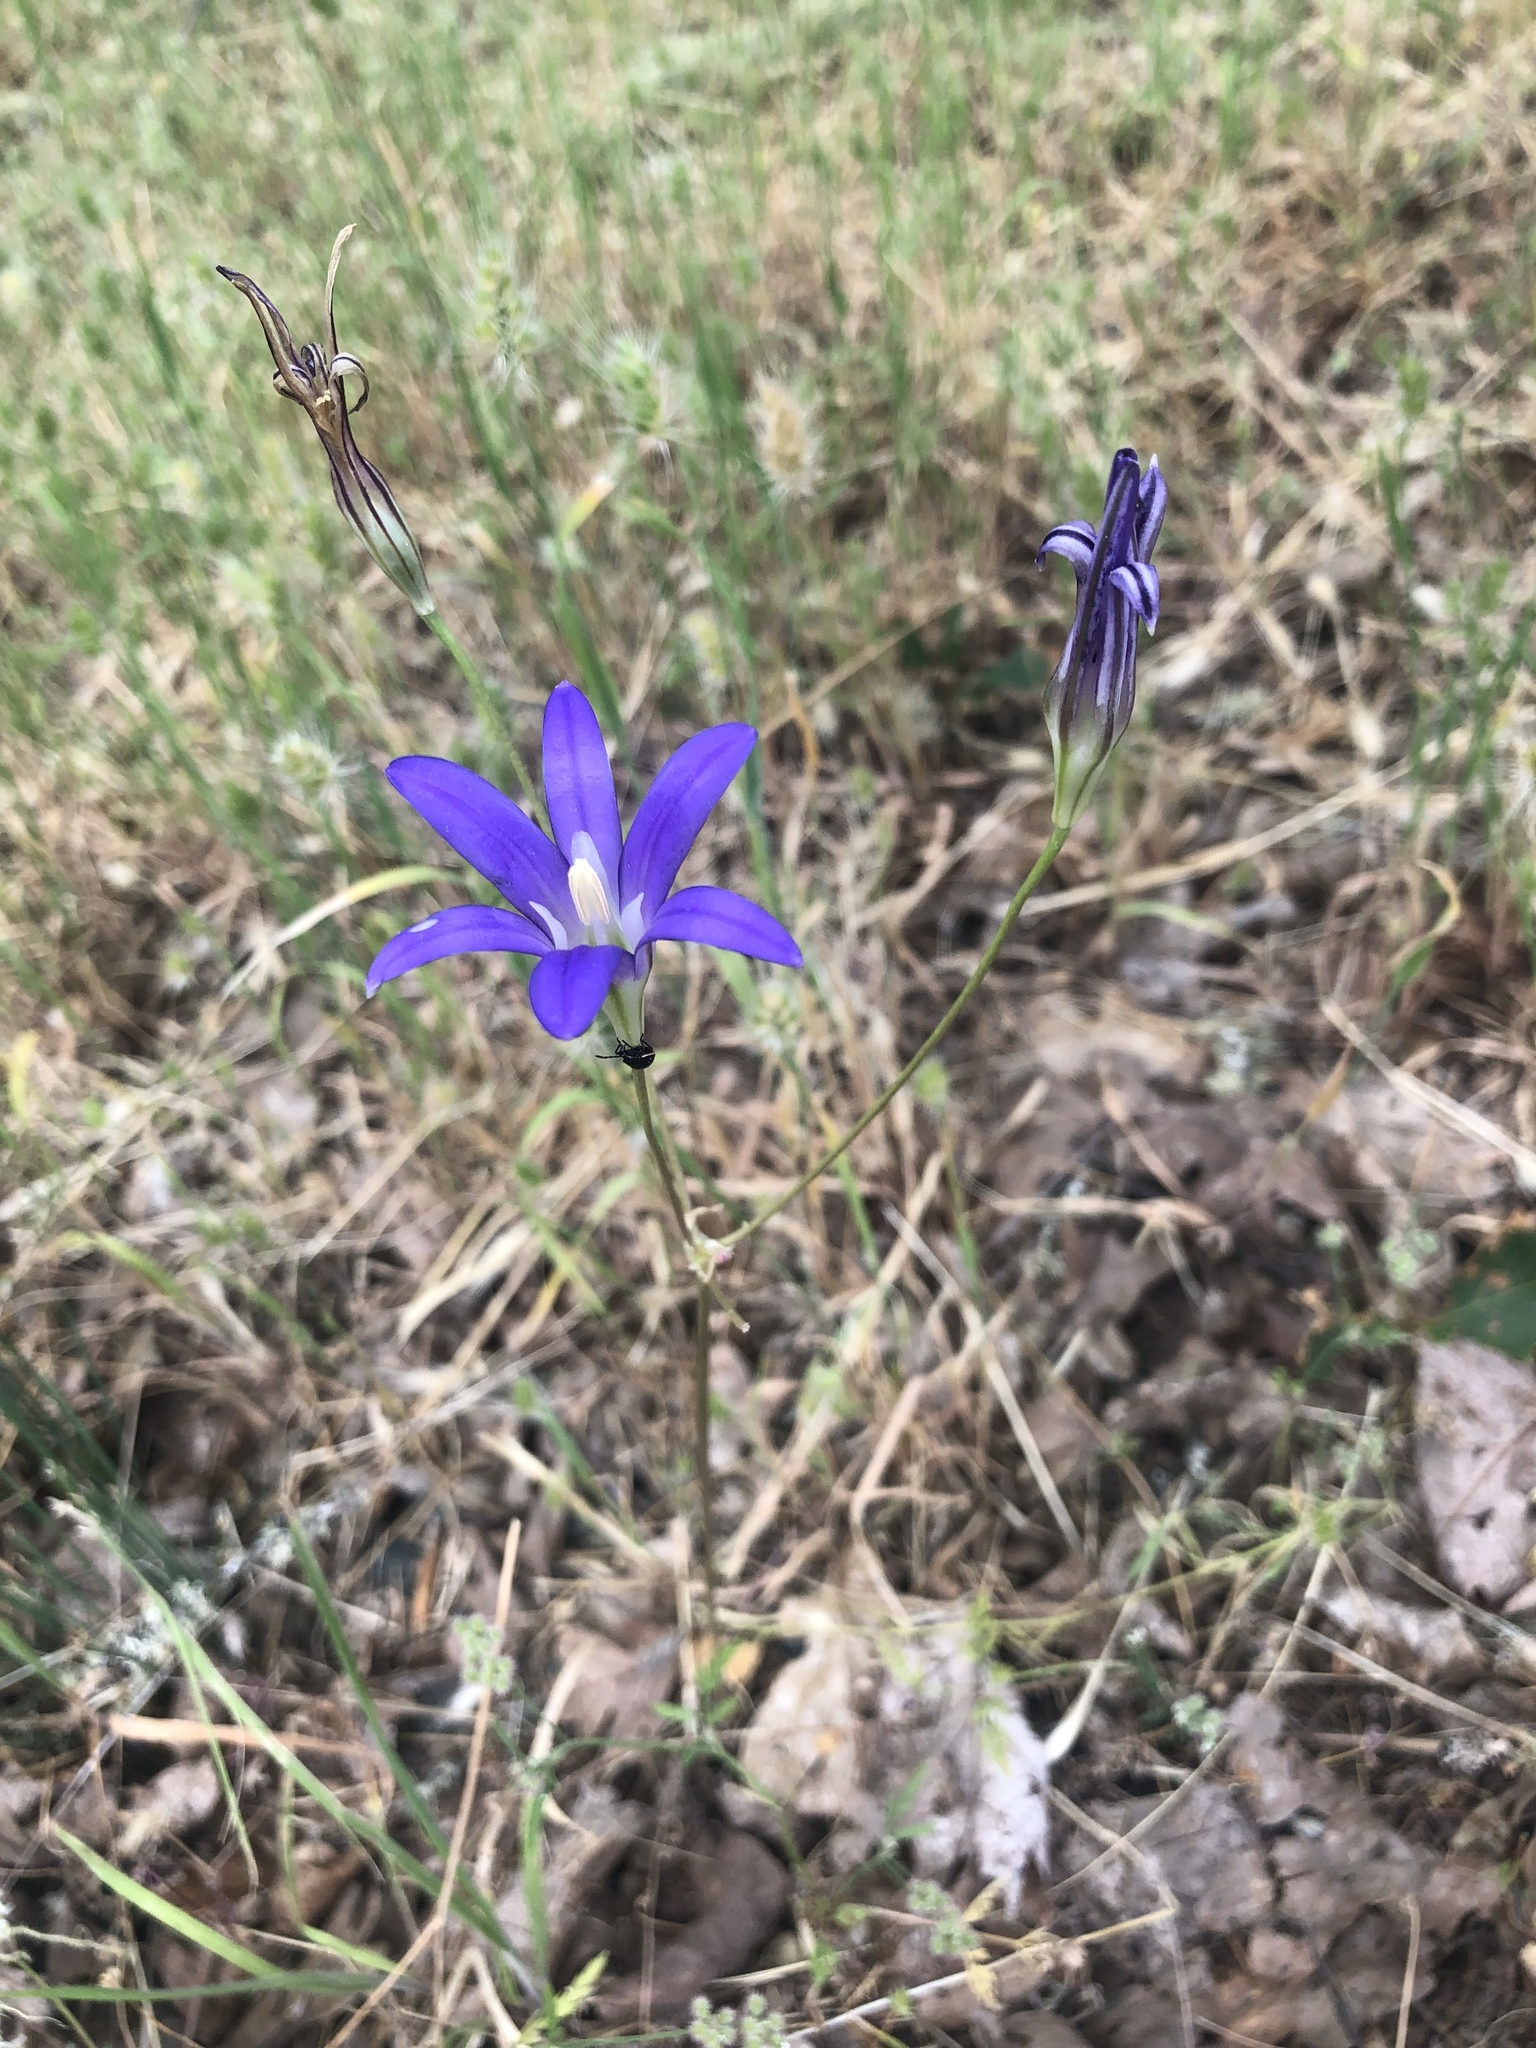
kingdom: Plantae
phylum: Tracheophyta
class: Liliopsida
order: Asparagales
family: Asparagaceae
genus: Brodiaea
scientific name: Brodiaea elegans
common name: Elegant cluster-lily
